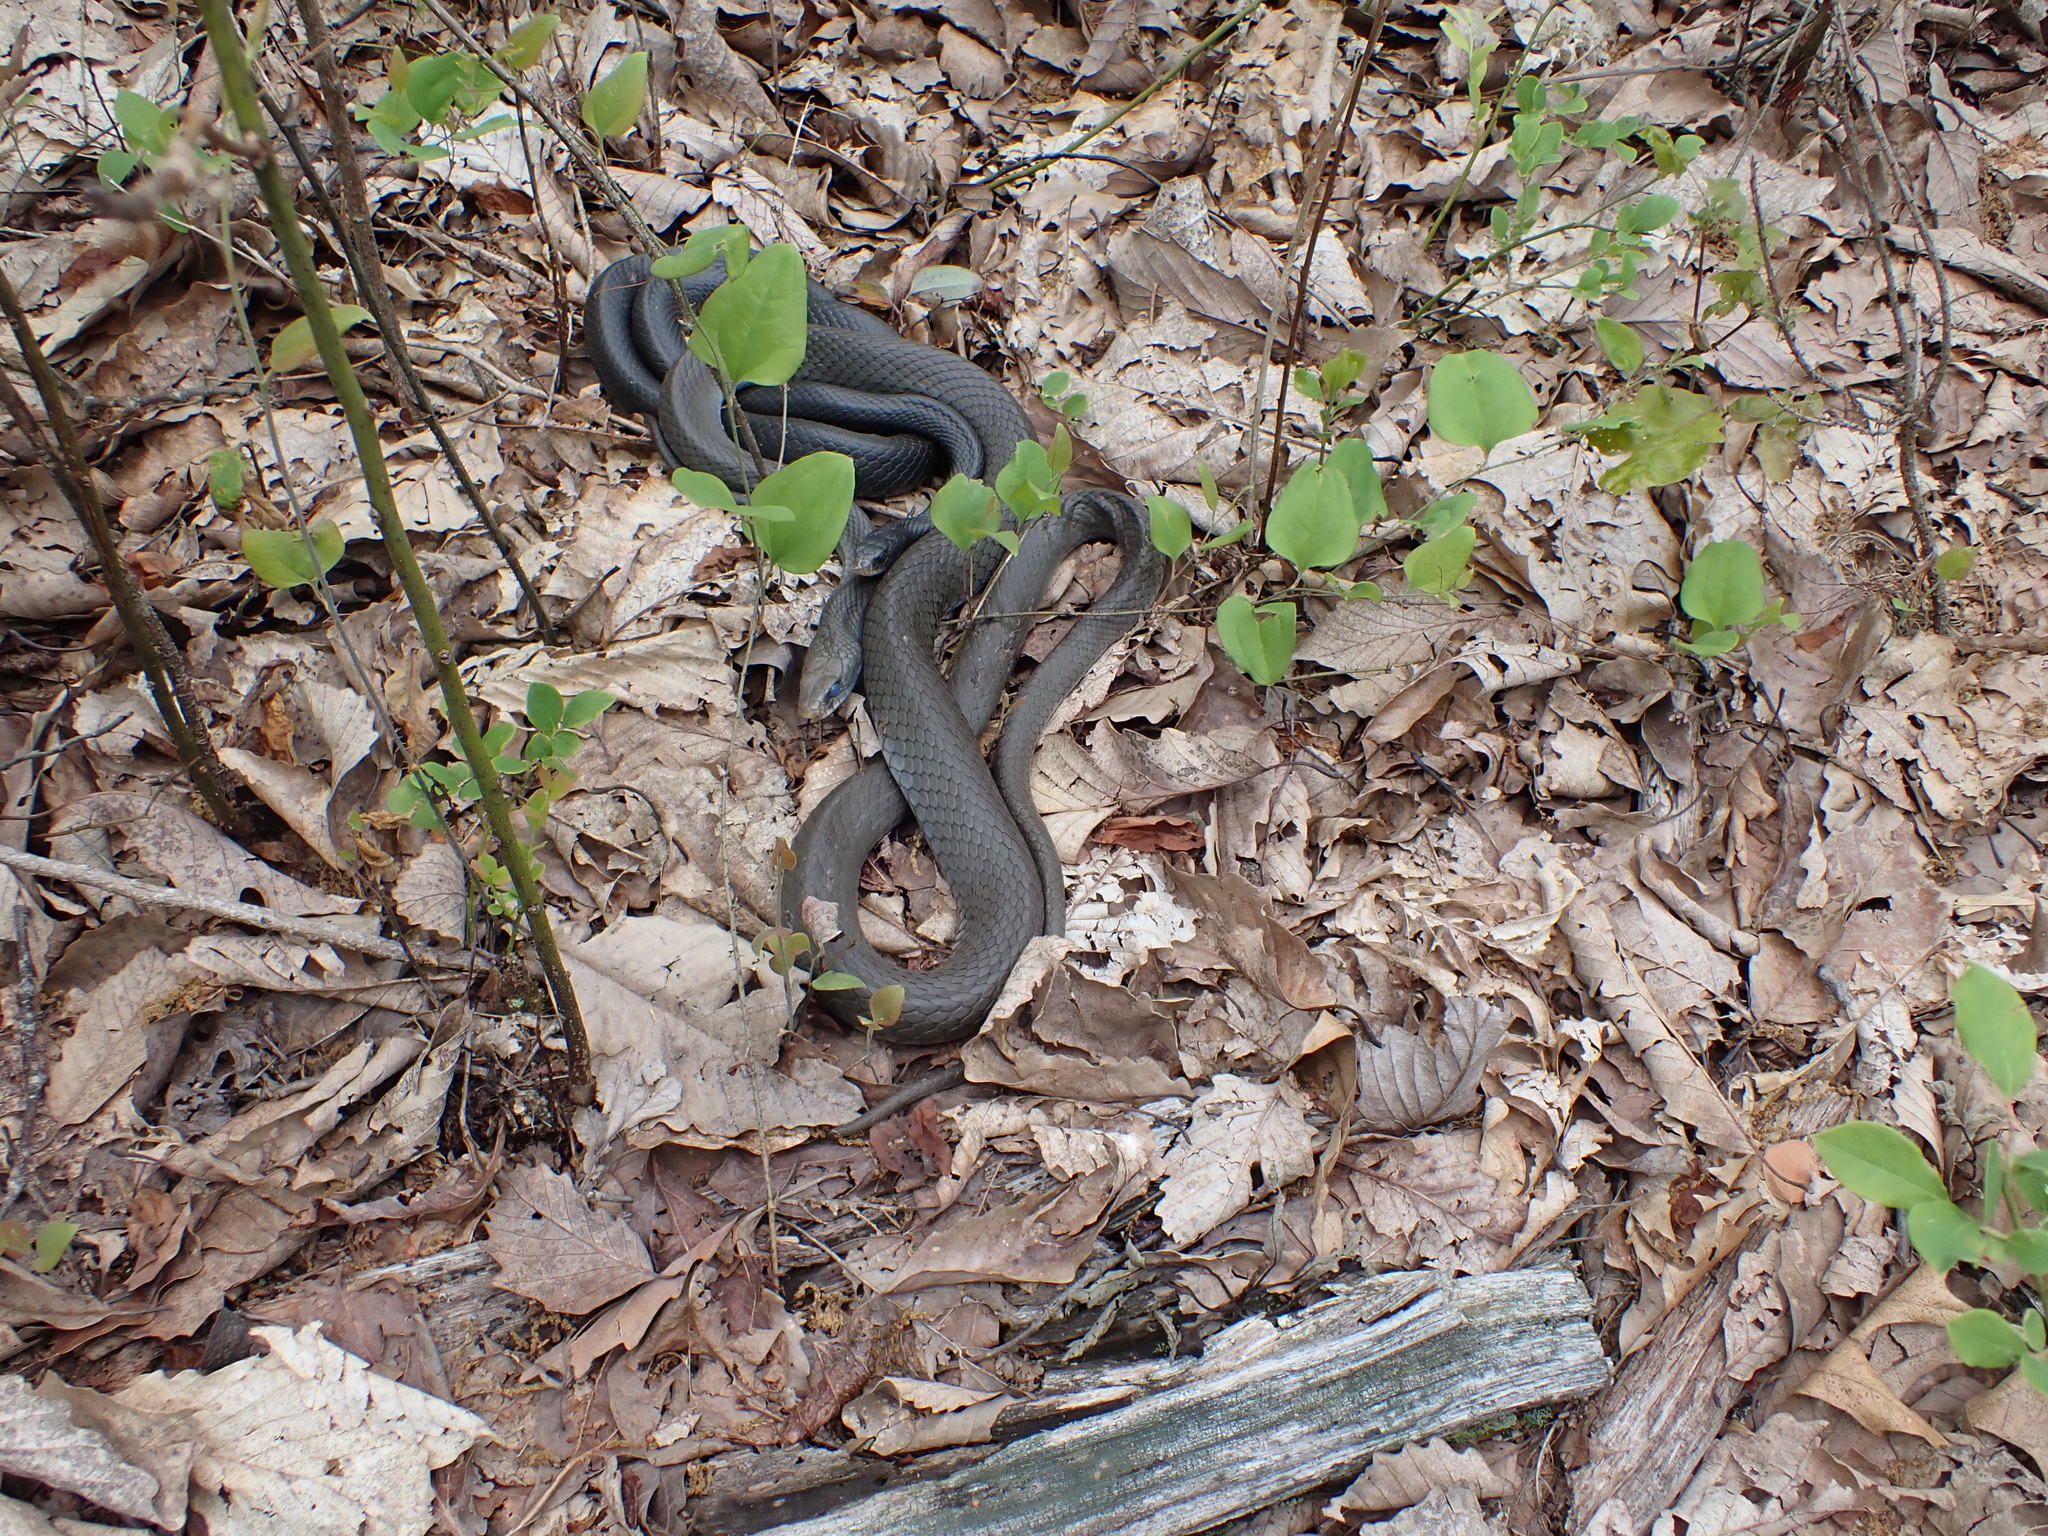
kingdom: Animalia
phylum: Chordata
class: Squamata
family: Colubridae
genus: Coluber
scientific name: Coluber constrictor
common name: Eastern racer
